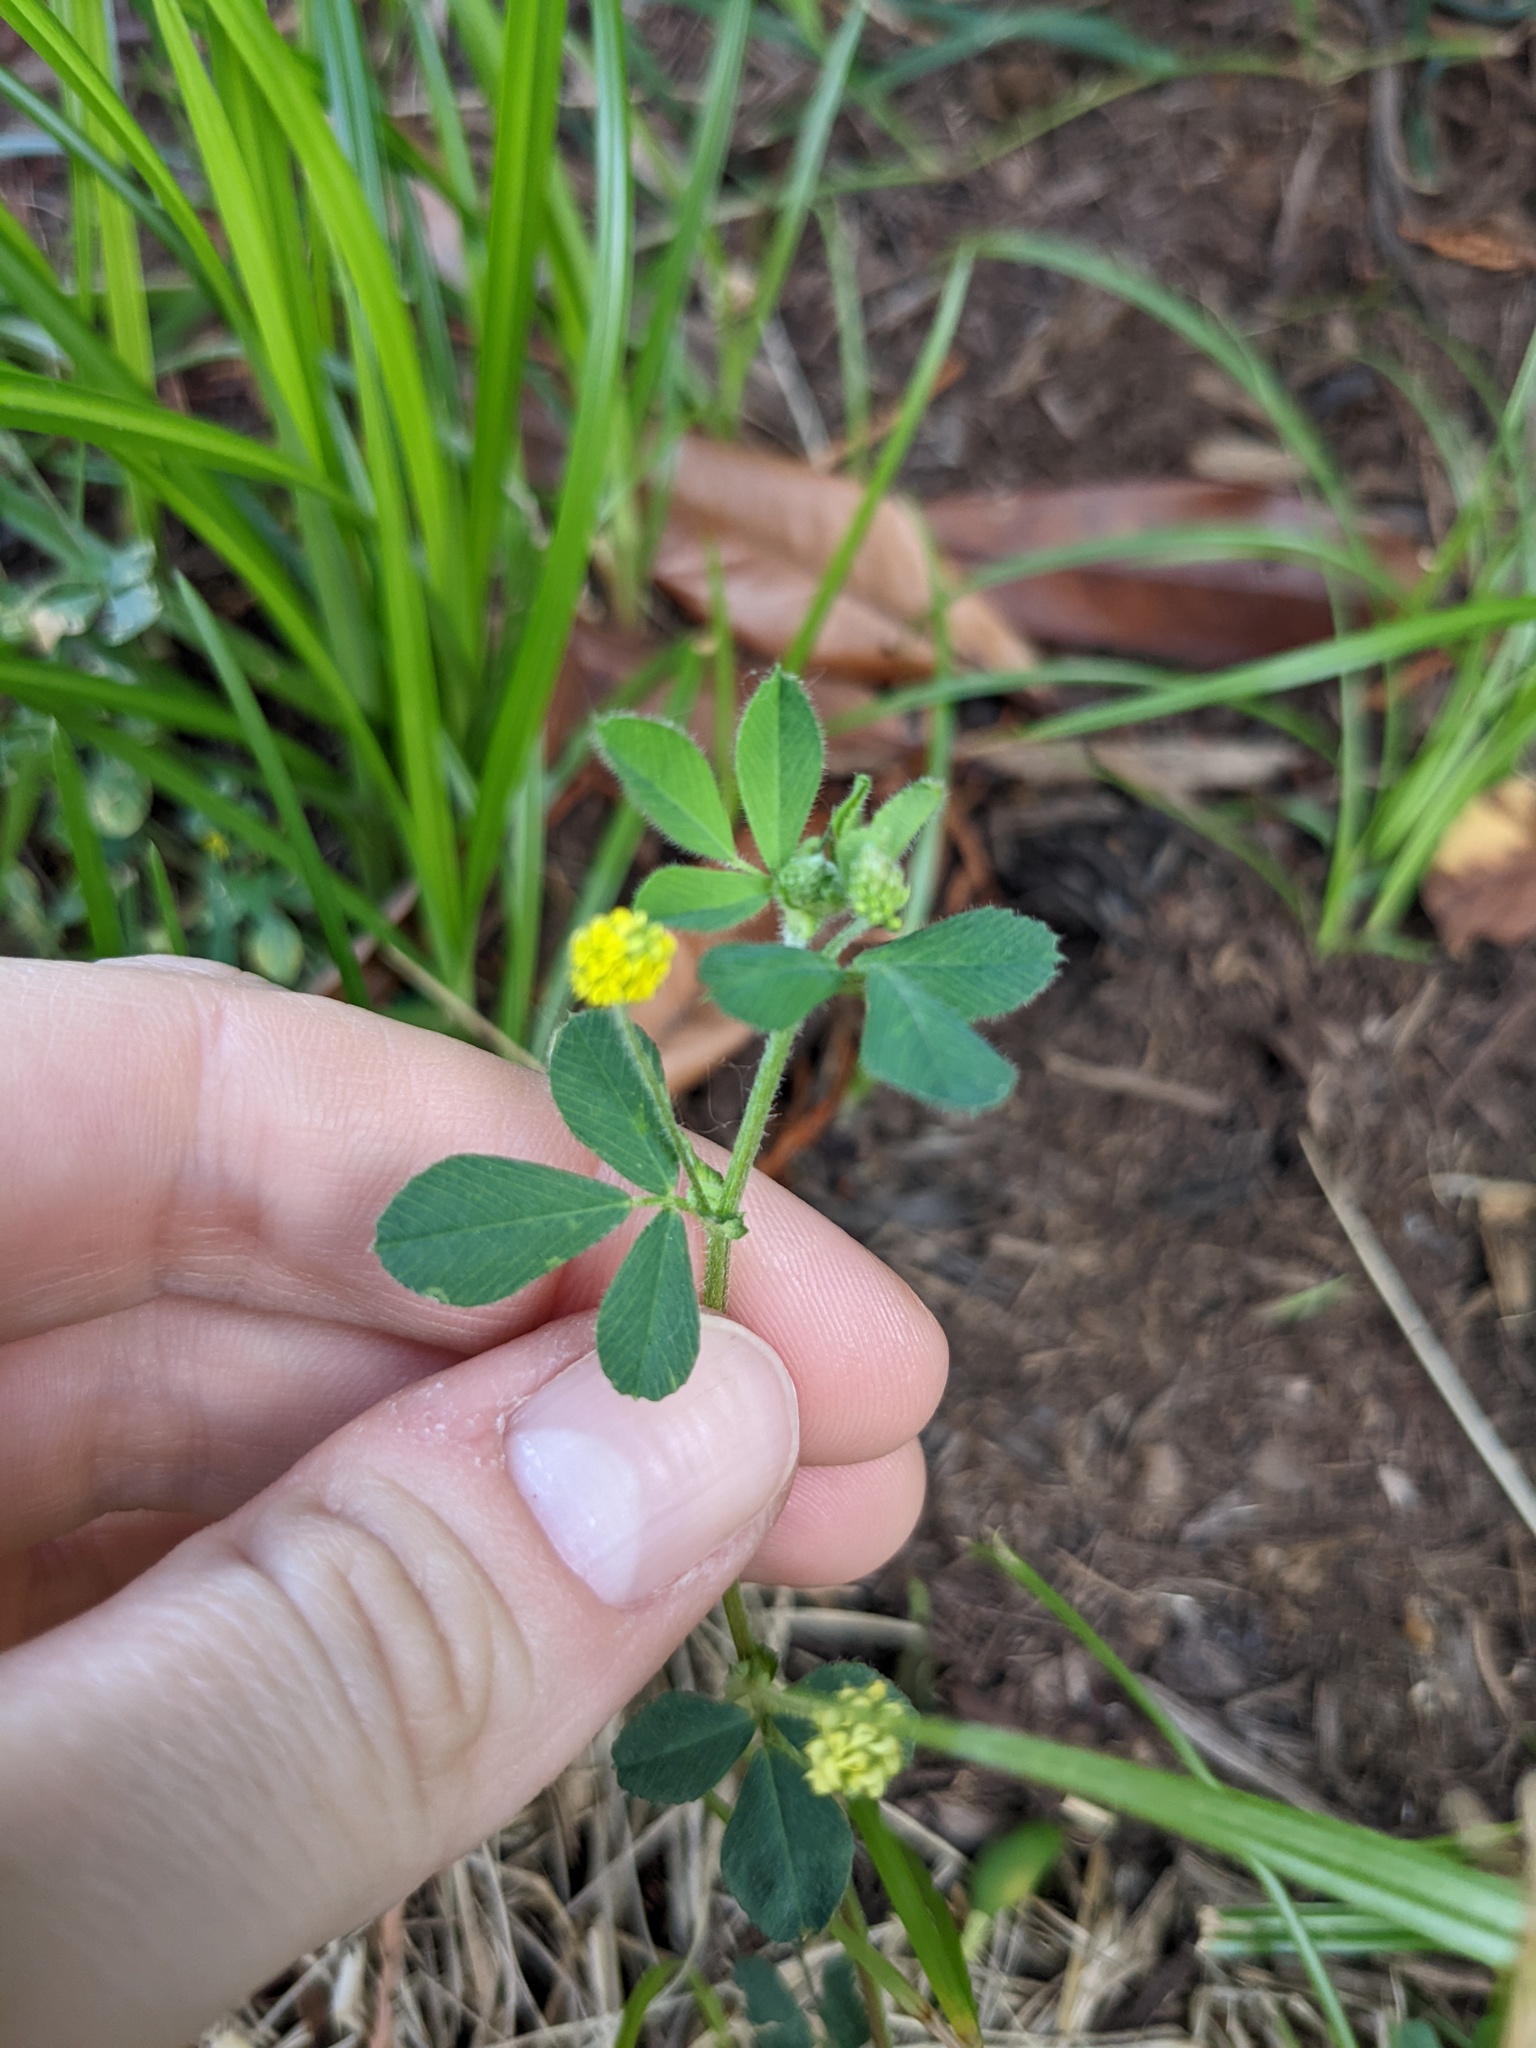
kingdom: Plantae
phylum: Tracheophyta
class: Magnoliopsida
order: Fabales
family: Fabaceae
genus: Medicago
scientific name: Medicago lupulina
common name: Black medick
